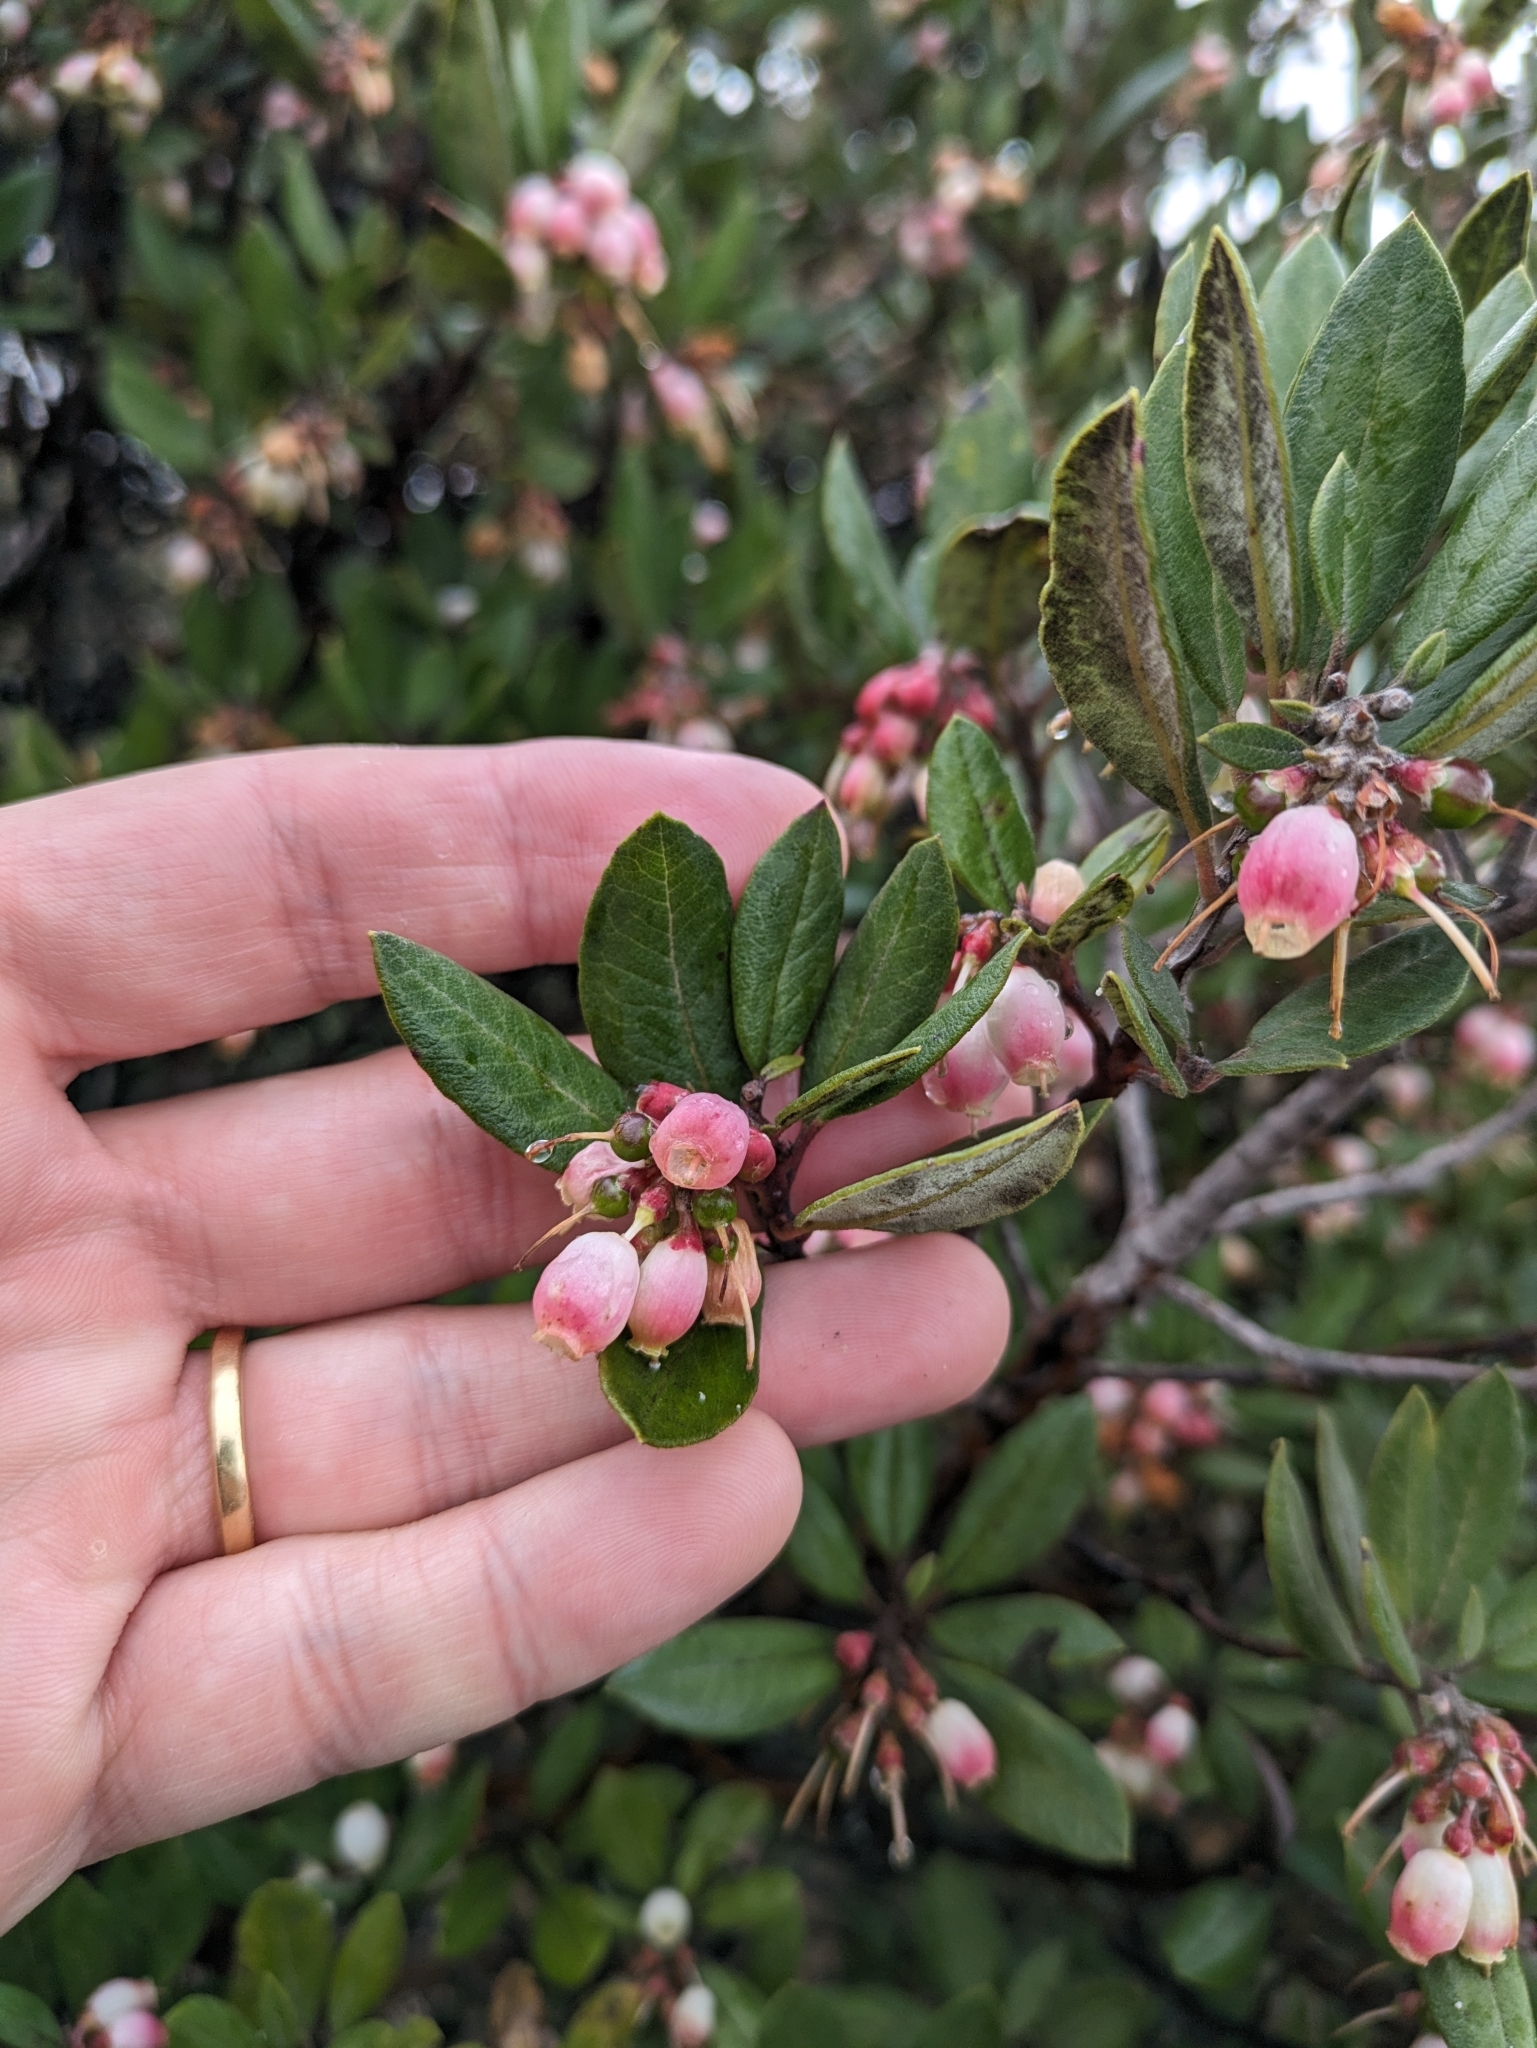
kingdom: Plantae
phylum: Tracheophyta
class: Magnoliopsida
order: Ericales
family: Ericaceae
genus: Arctostaphylos
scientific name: Arctostaphylos bicolor
